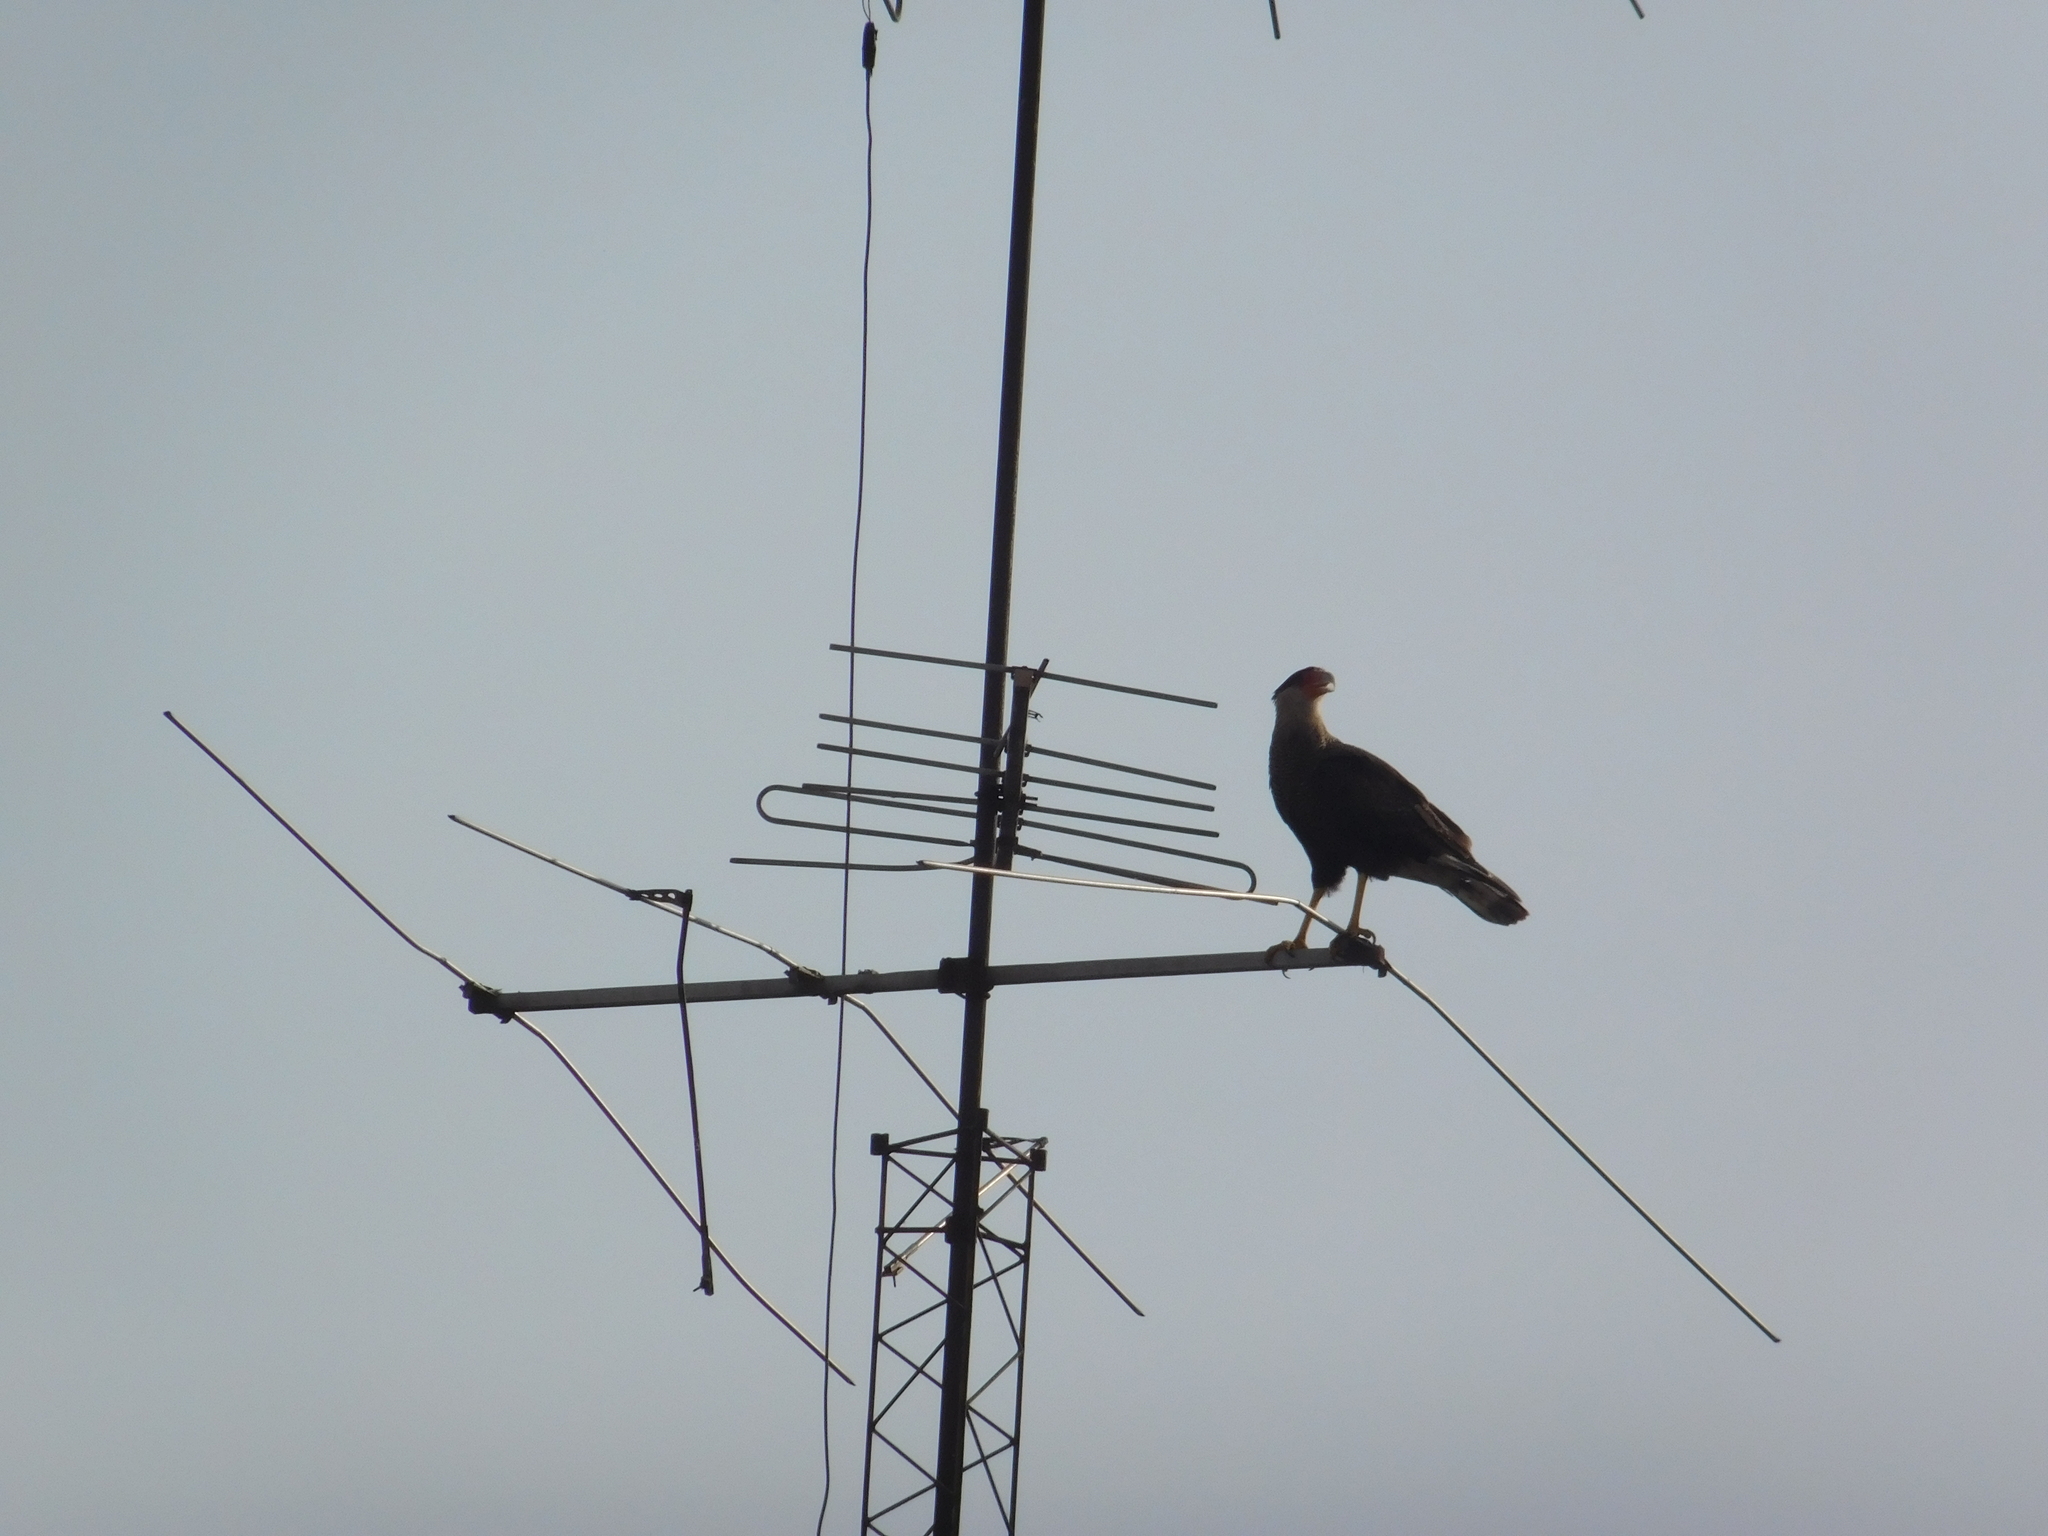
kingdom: Animalia
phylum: Chordata
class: Aves
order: Falconiformes
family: Falconidae
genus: Caracara
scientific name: Caracara plancus
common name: Southern caracara
